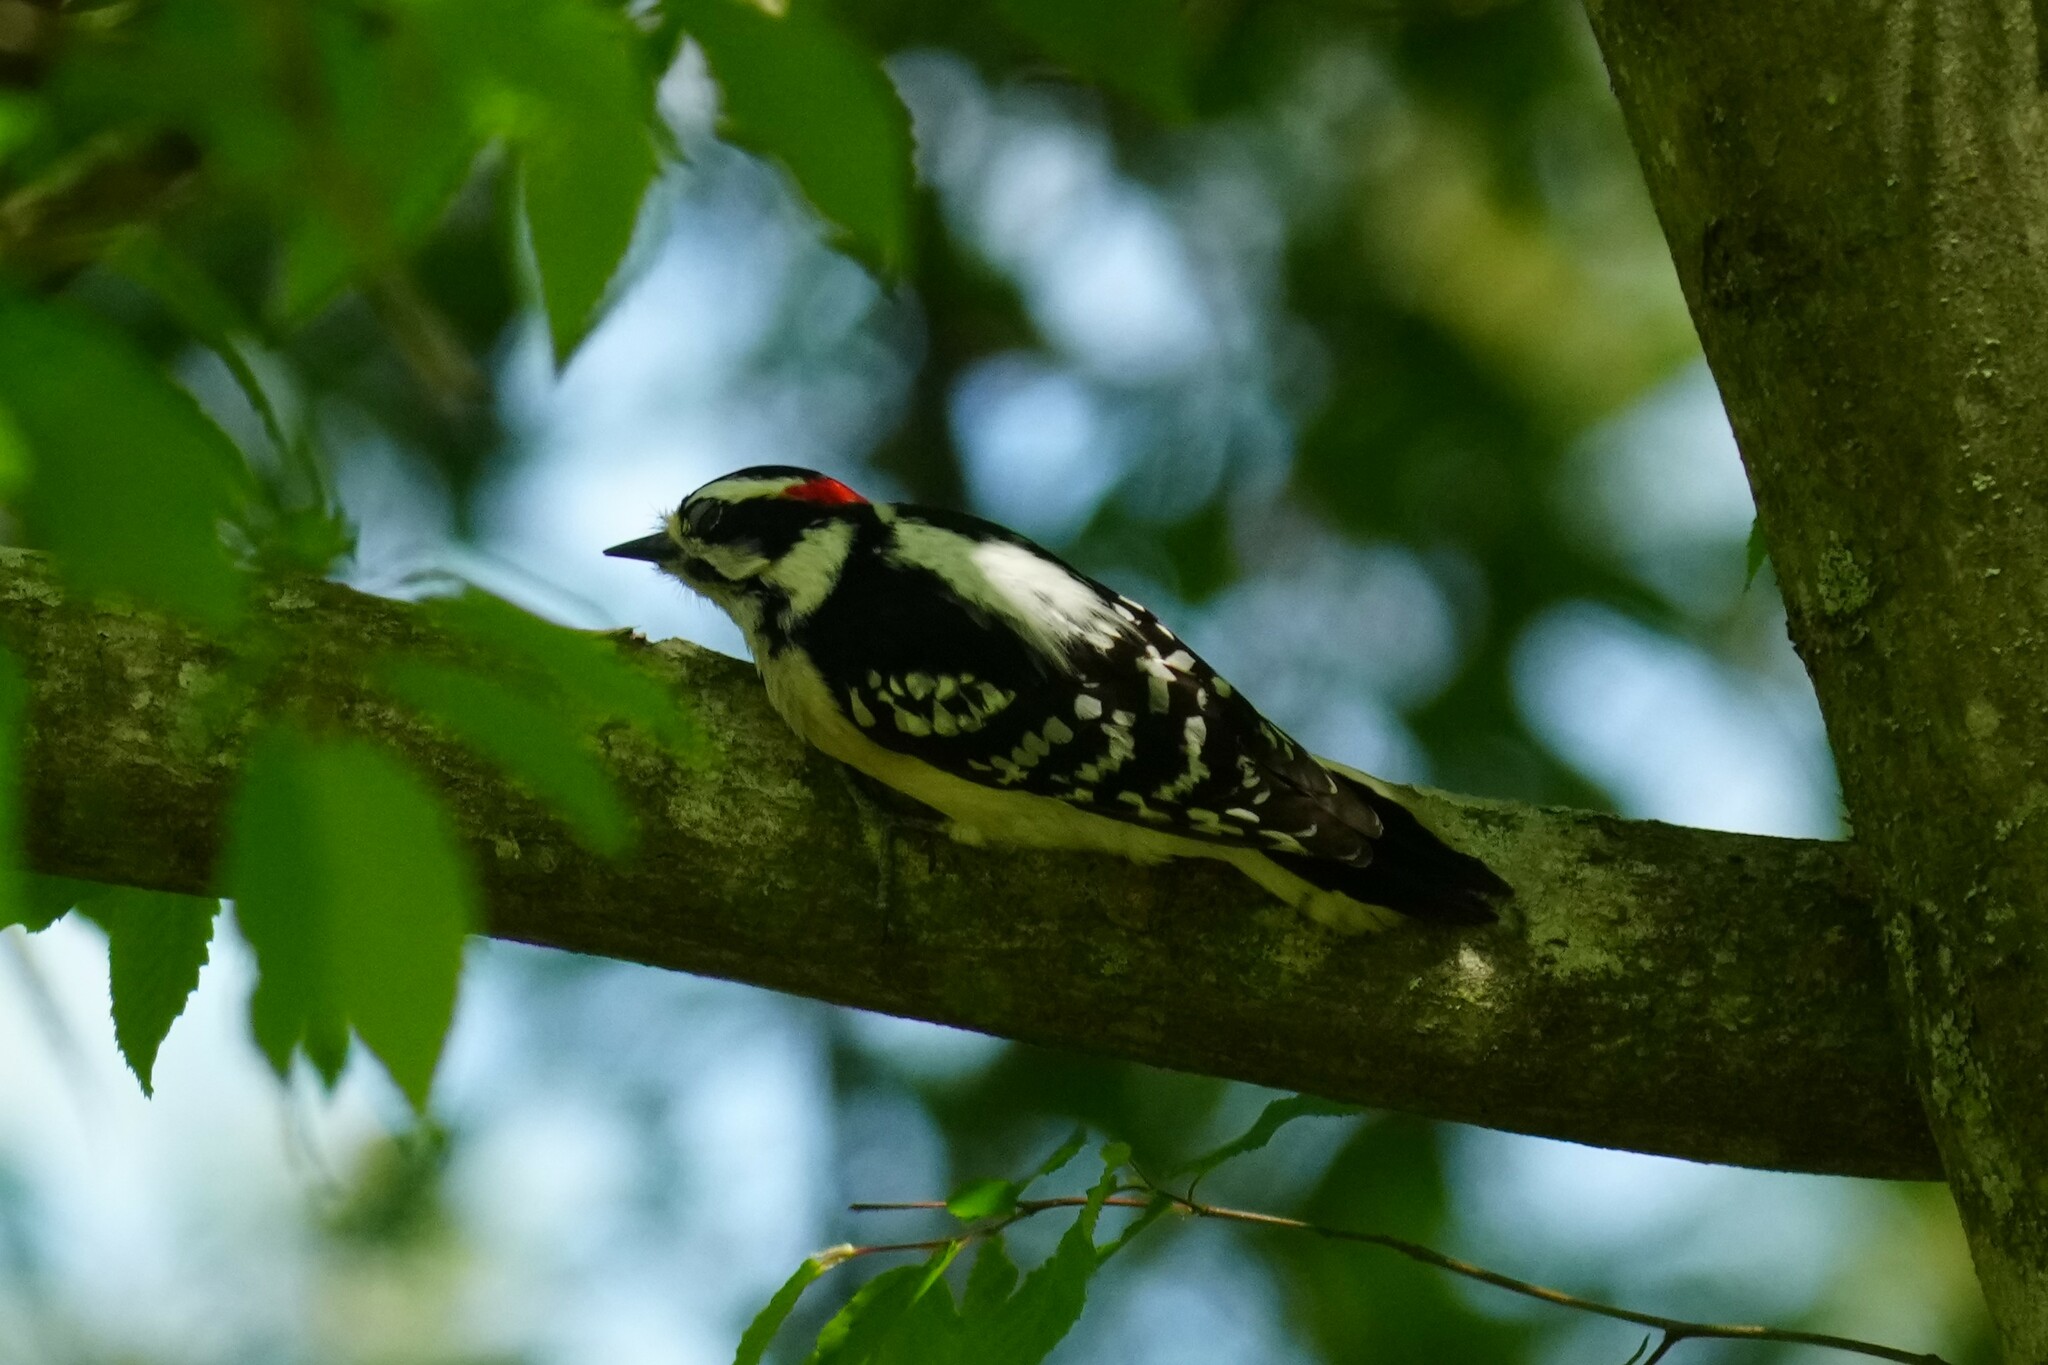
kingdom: Animalia
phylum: Chordata
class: Aves
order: Piciformes
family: Picidae
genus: Dryobates
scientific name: Dryobates pubescens
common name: Downy woodpecker
